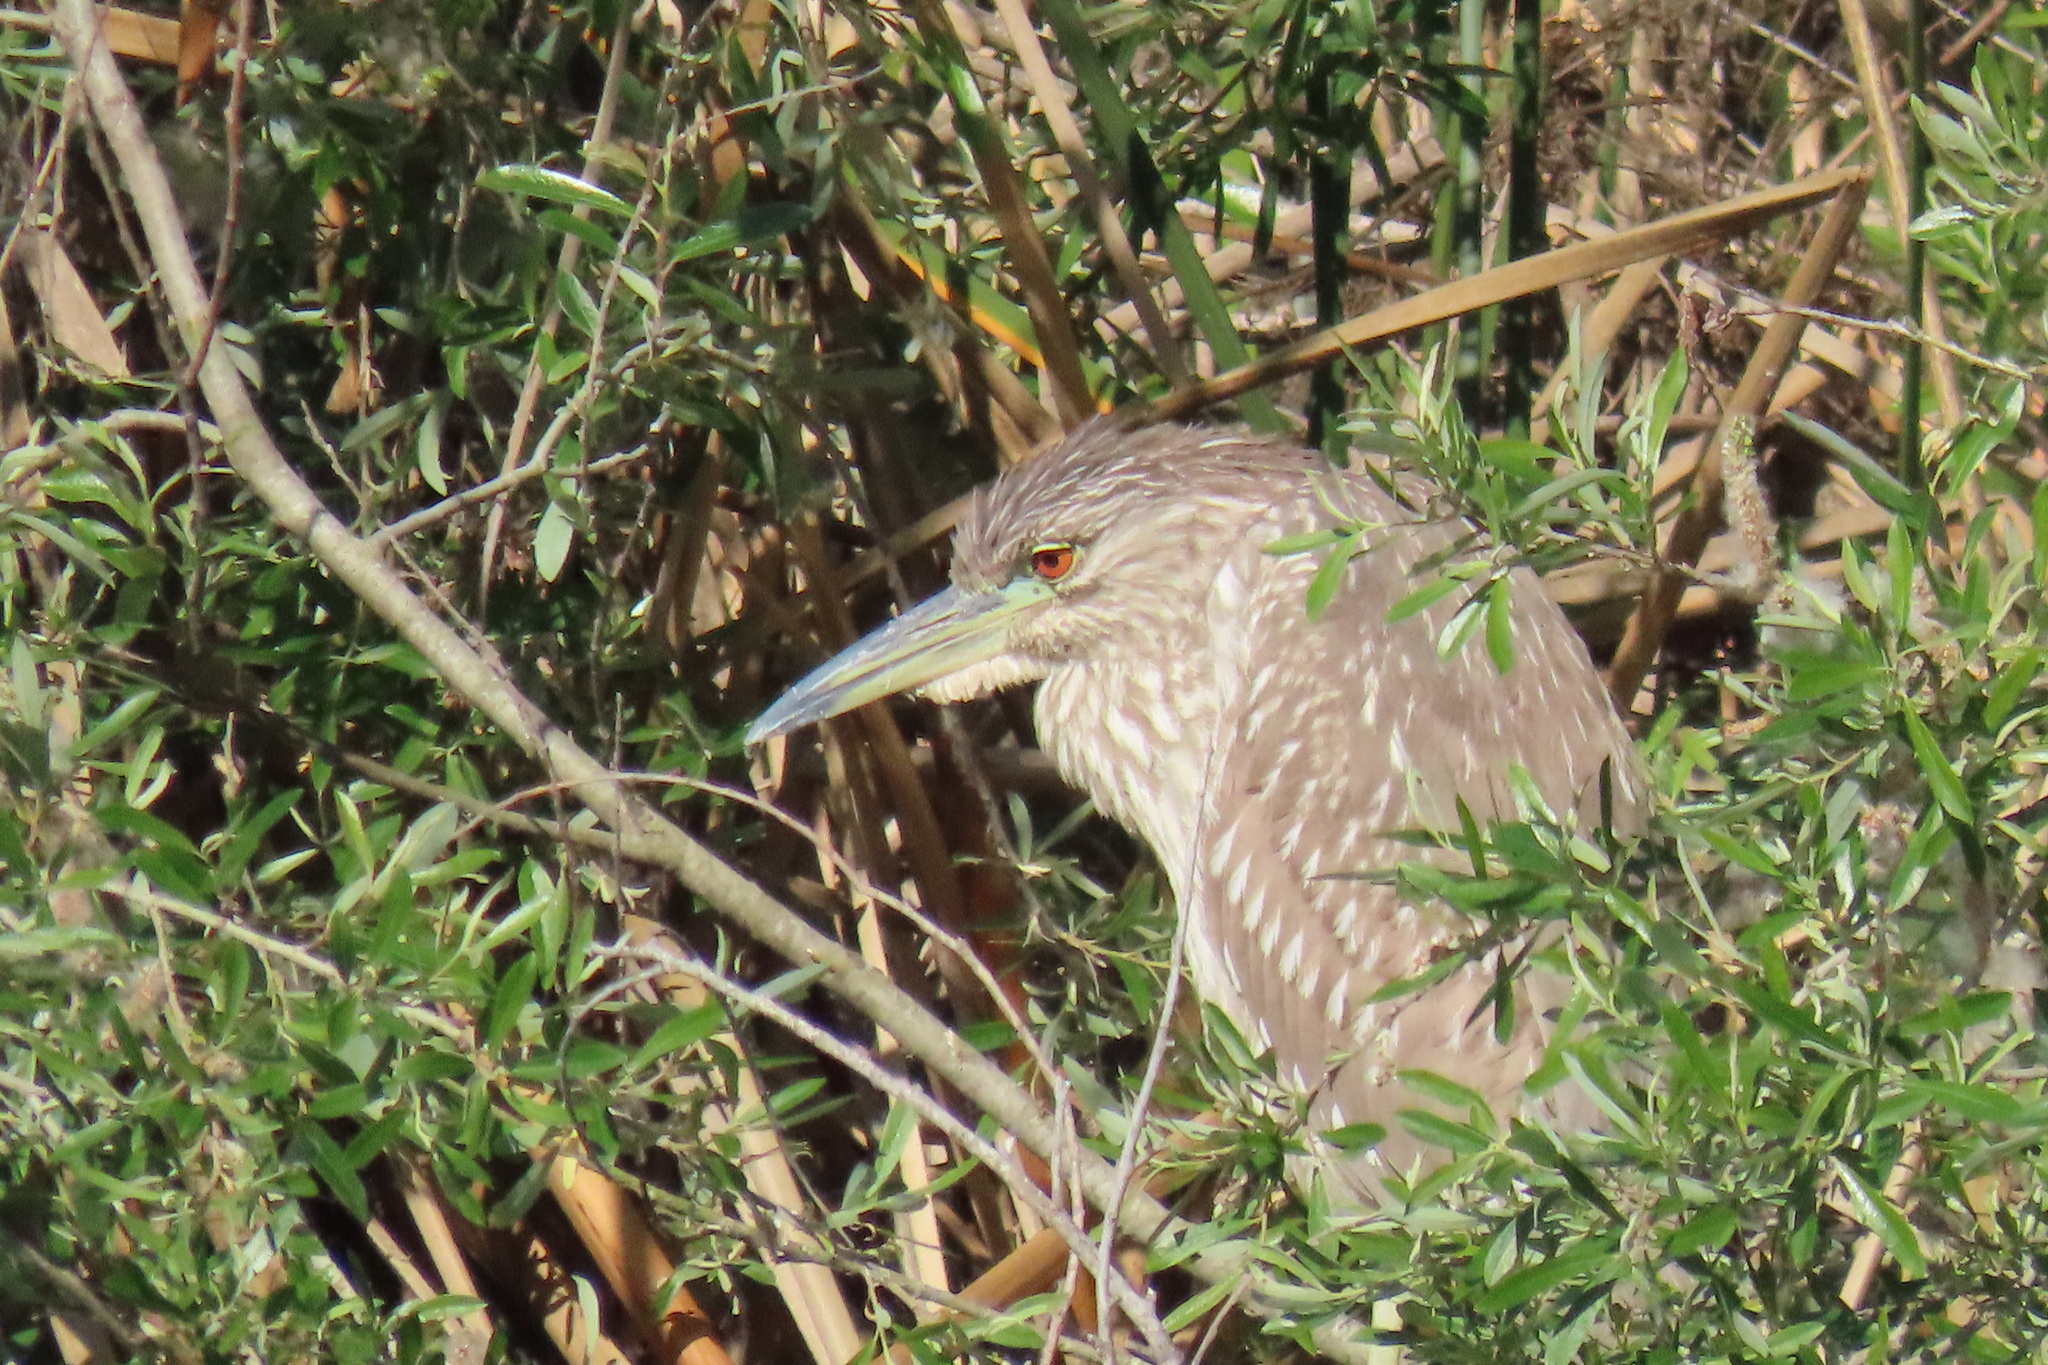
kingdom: Animalia
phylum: Chordata
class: Aves
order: Pelecaniformes
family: Ardeidae
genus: Nycticorax
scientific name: Nycticorax nycticorax
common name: Black-crowned night heron
